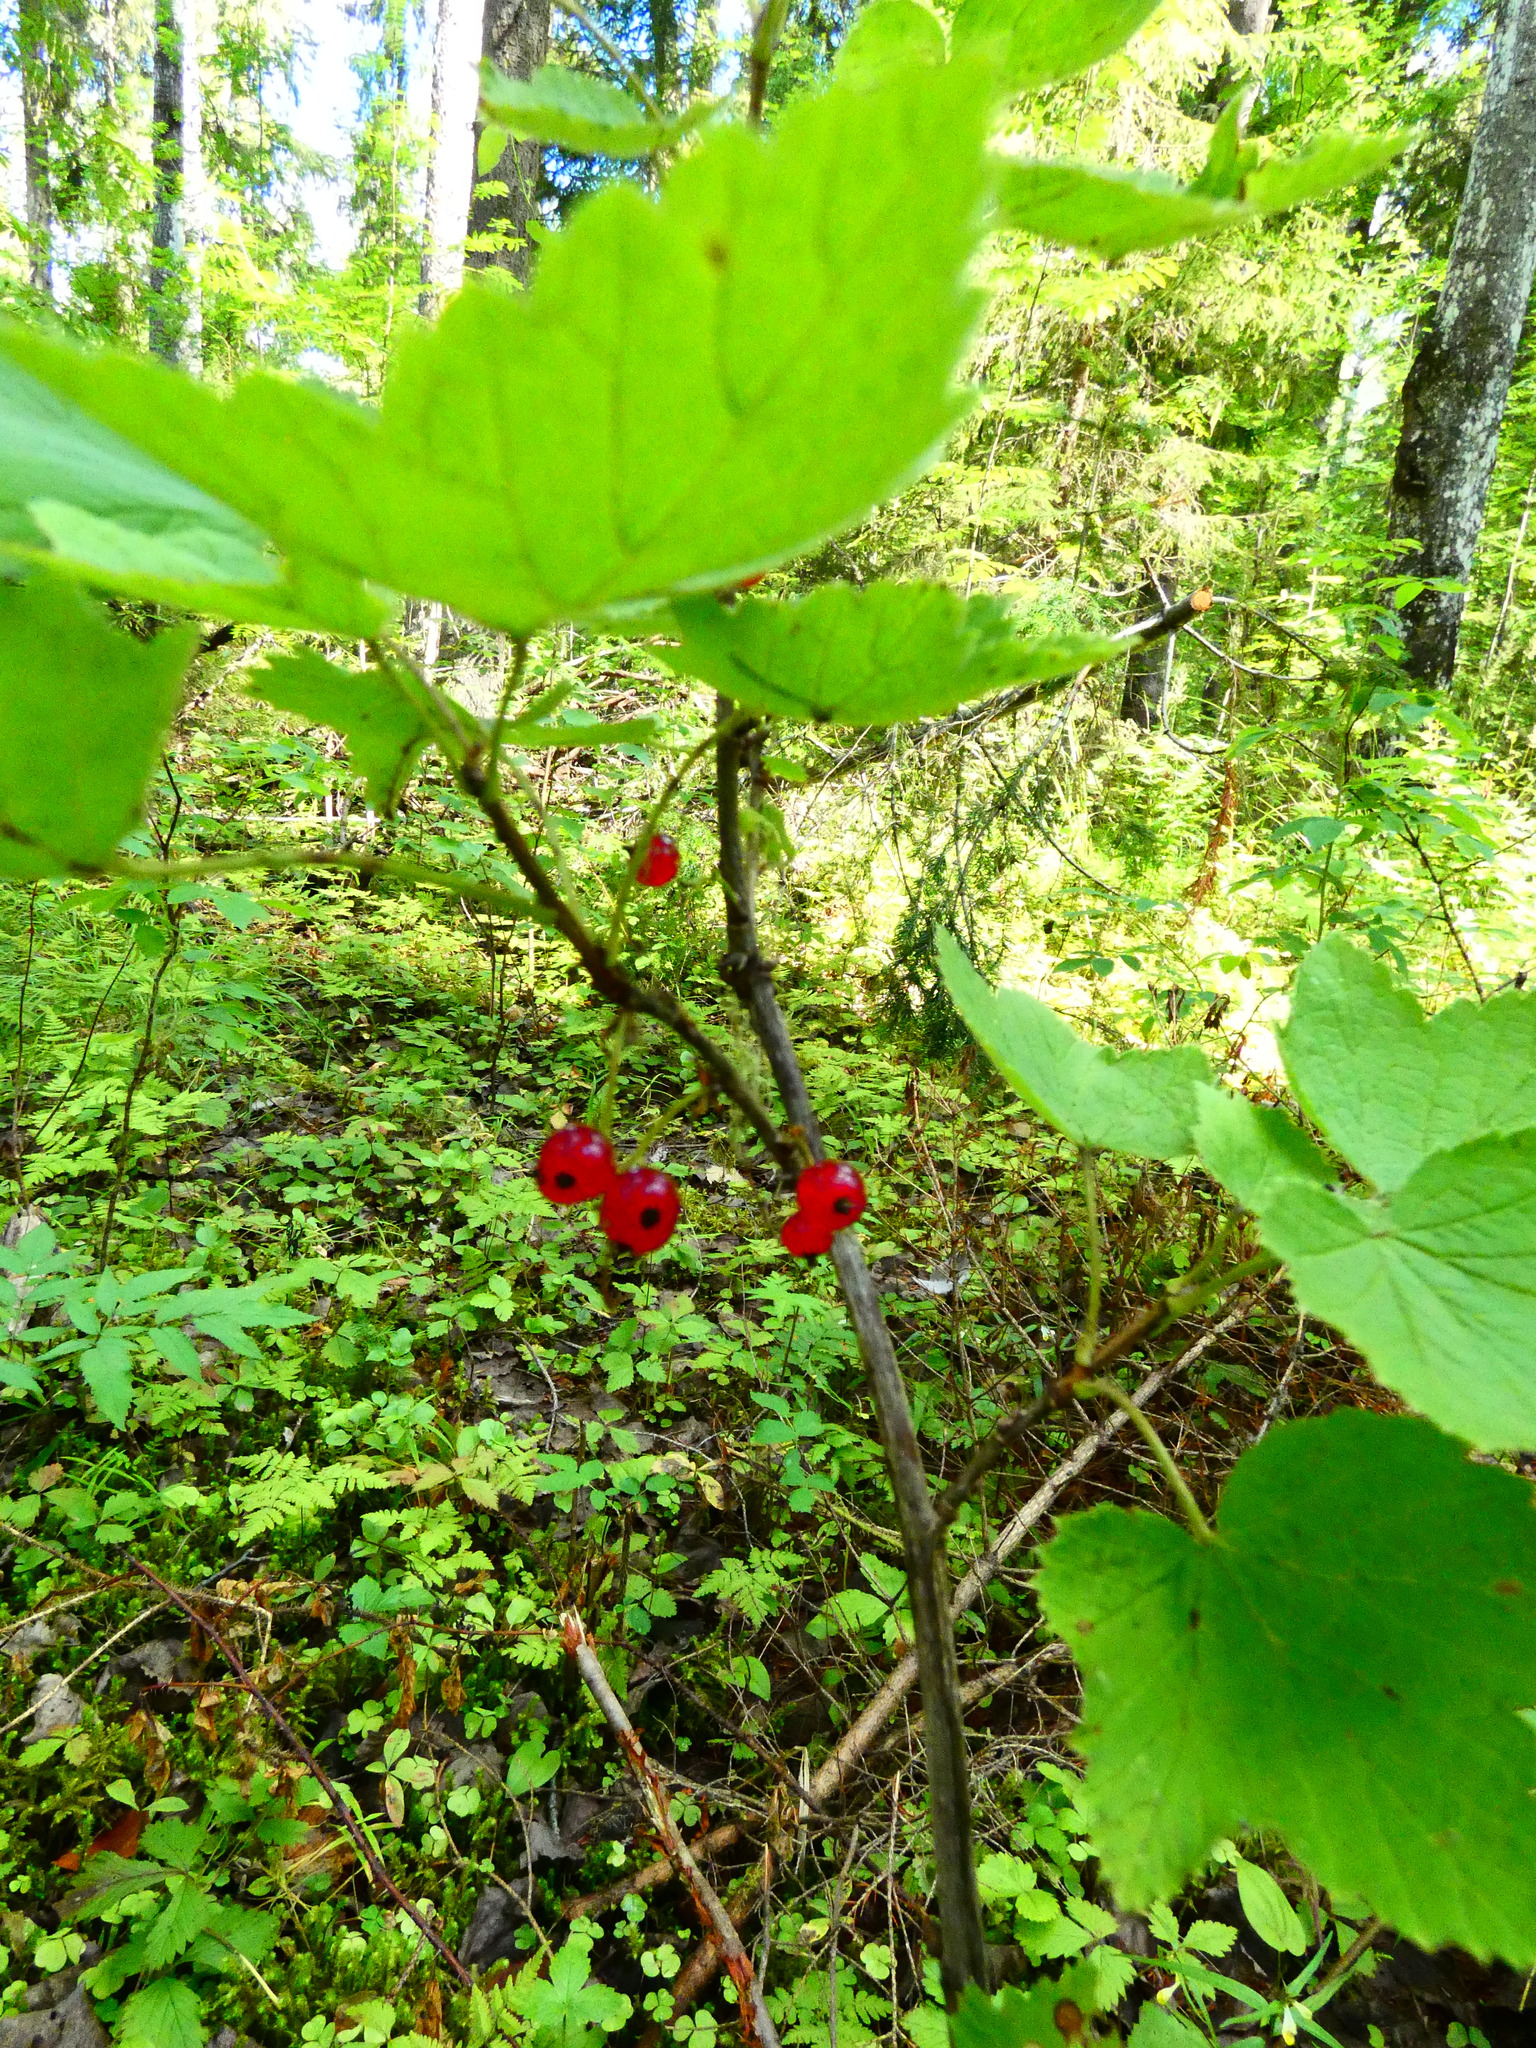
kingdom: Plantae
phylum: Tracheophyta
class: Magnoliopsida
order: Saxifragales
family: Grossulariaceae
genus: Ribes
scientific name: Ribes spicatum
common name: Downy currant
